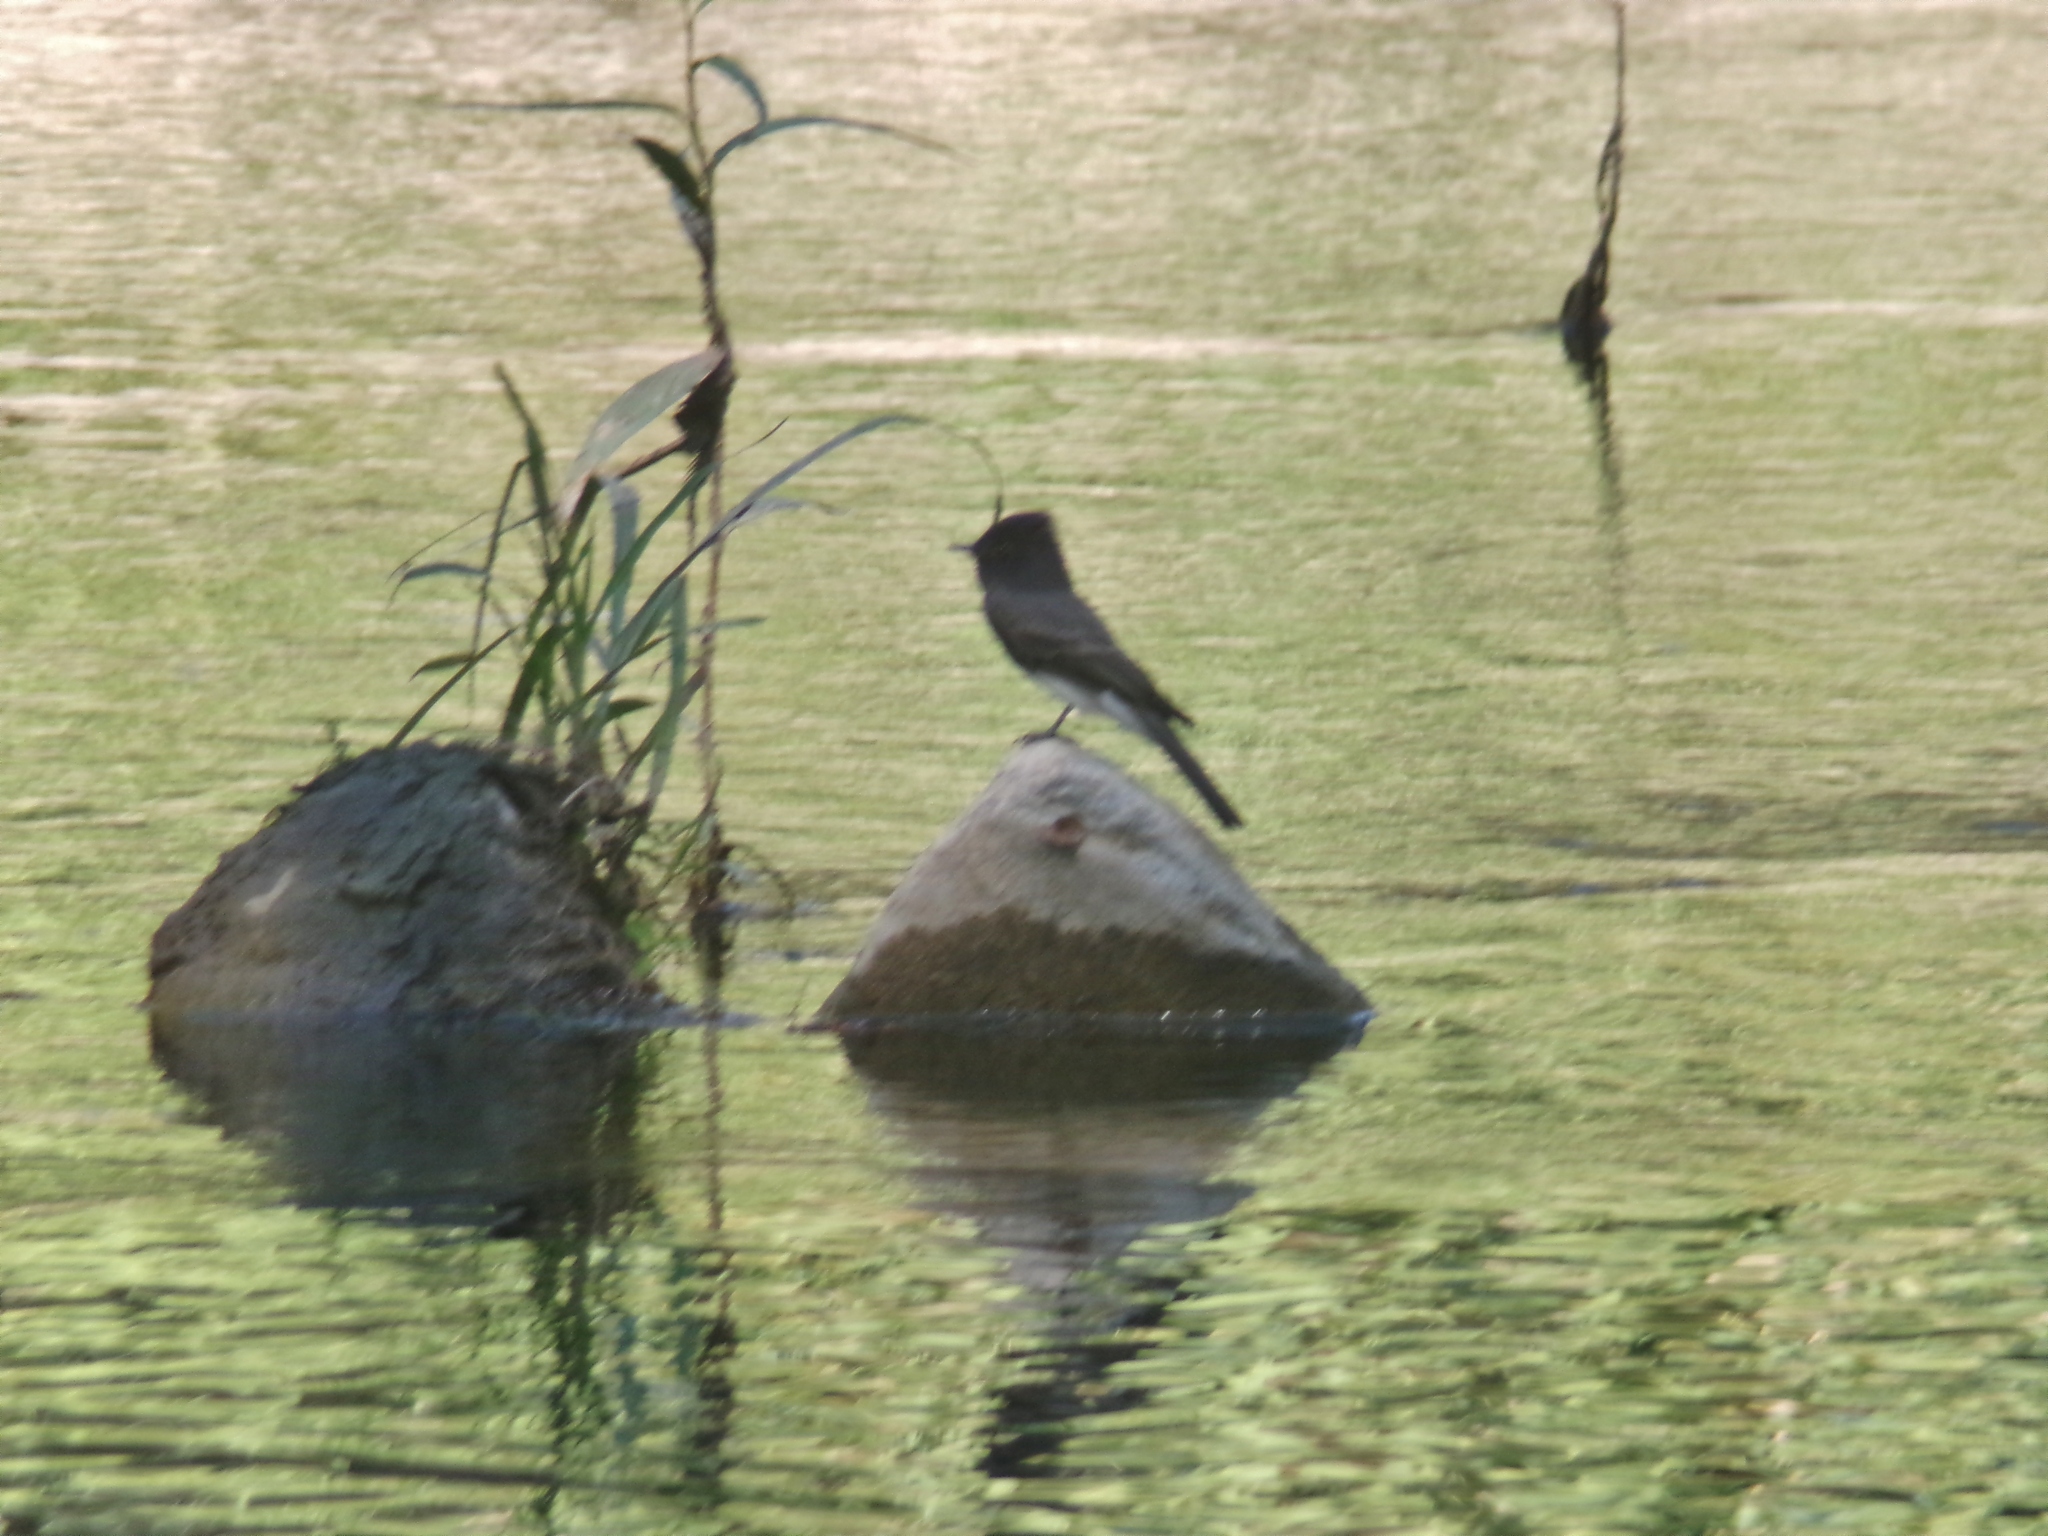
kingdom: Animalia
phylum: Chordata
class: Aves
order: Passeriformes
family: Tyrannidae
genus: Sayornis
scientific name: Sayornis nigricans
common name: Black phoebe
